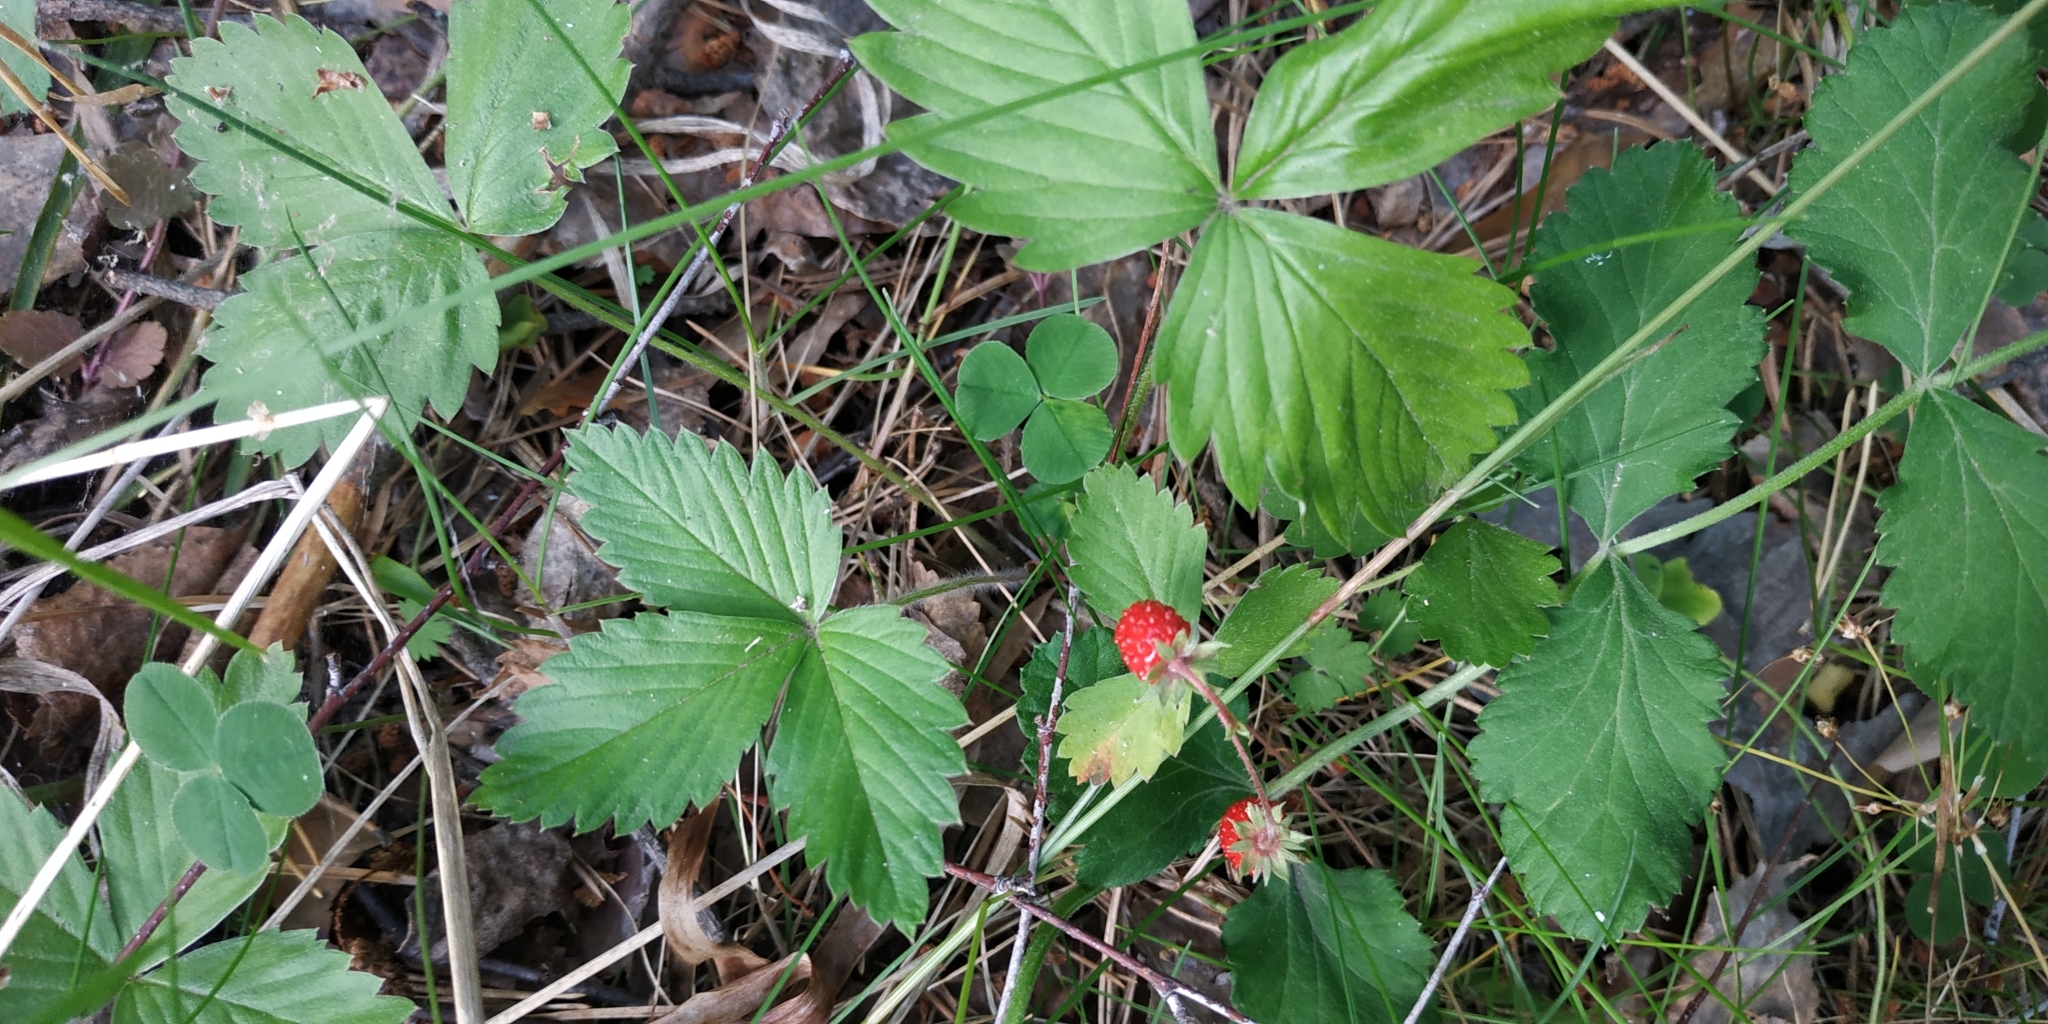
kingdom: Plantae
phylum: Tracheophyta
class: Magnoliopsida
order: Rosales
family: Rosaceae
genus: Fragaria
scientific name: Fragaria vesca
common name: Wild strawberry
